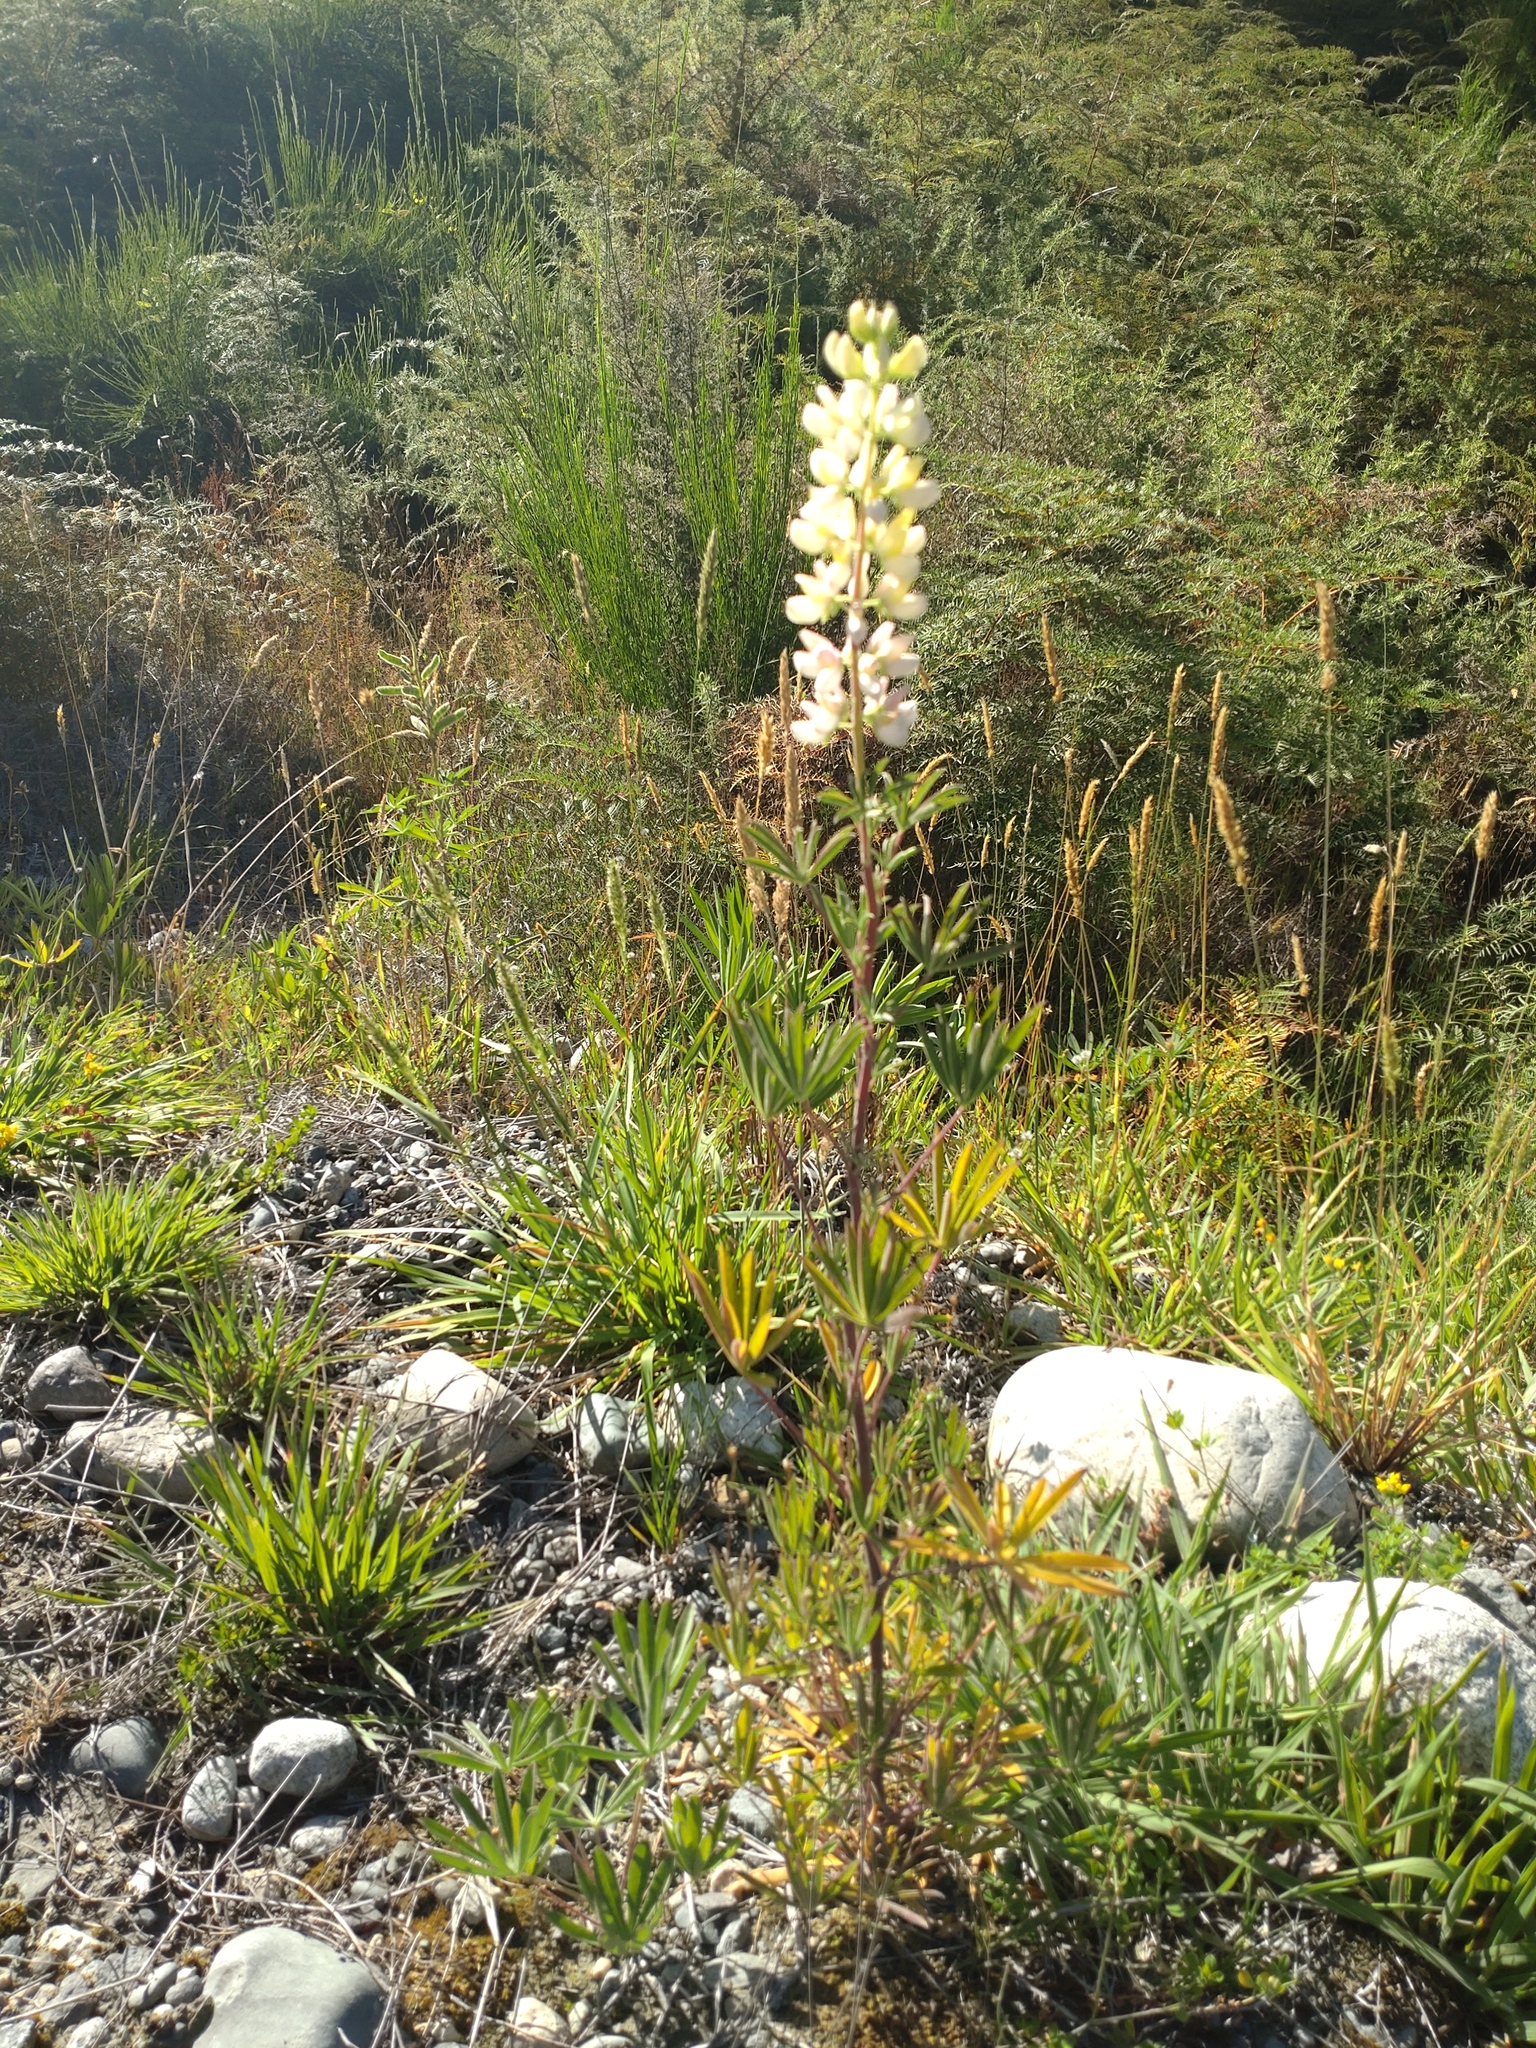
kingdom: Plantae
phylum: Tracheophyta
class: Magnoliopsida
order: Fabales
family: Fabaceae
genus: Lupinus
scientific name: Lupinus polyphyllus
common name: Garden lupin
